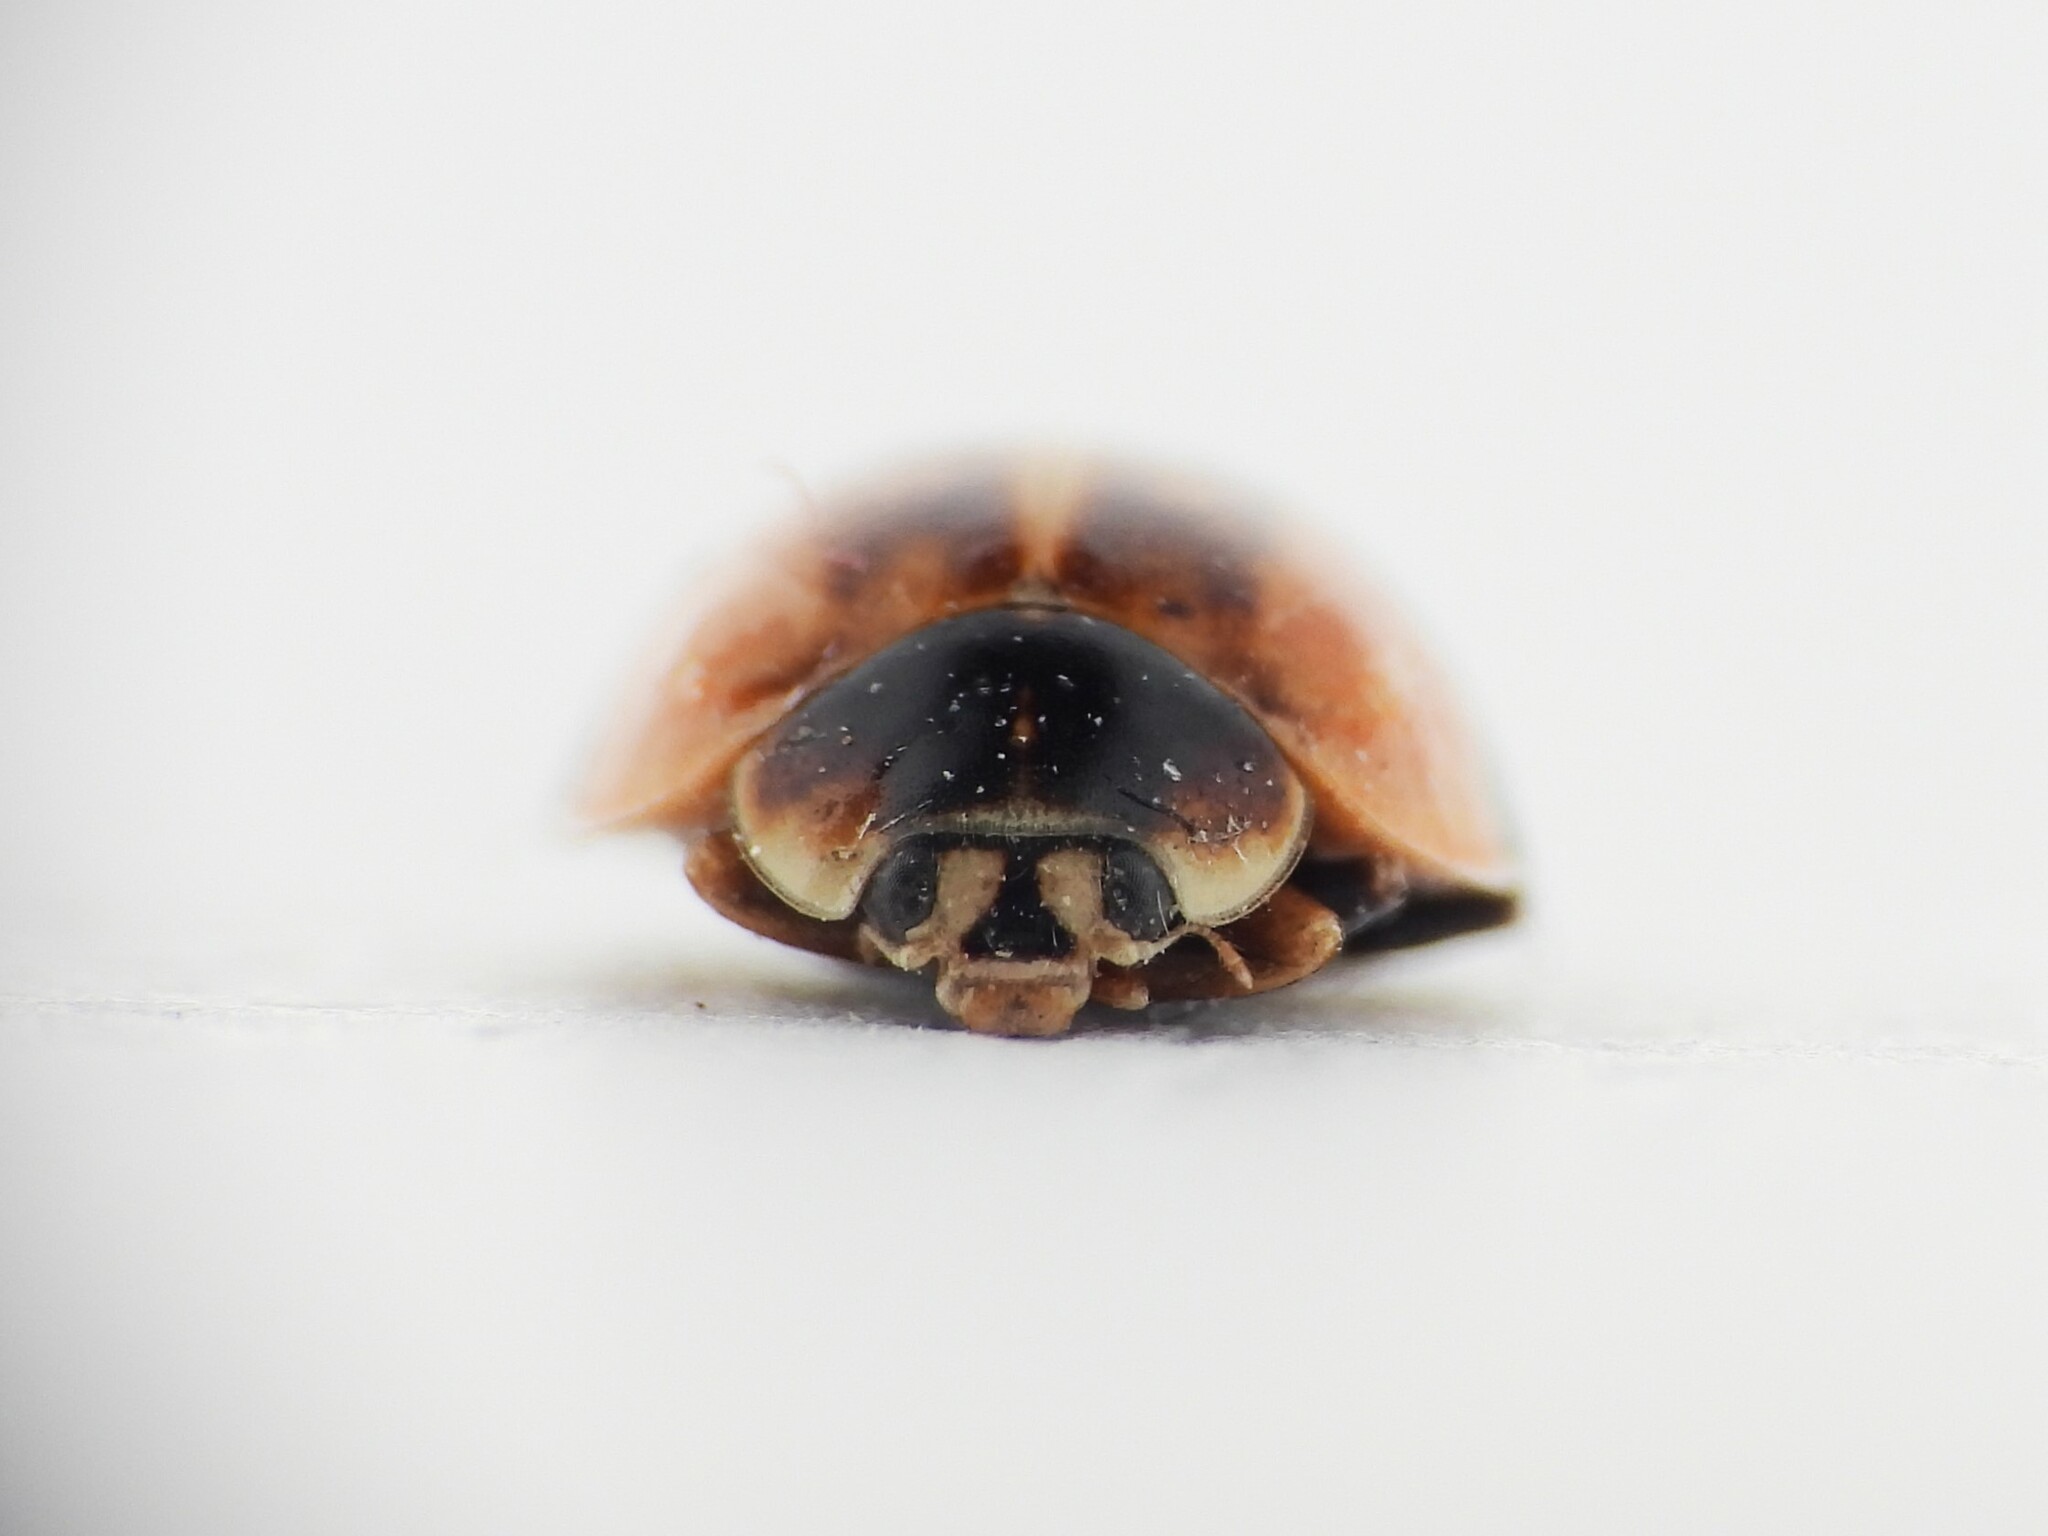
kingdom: Animalia
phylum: Arthropoda
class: Insecta
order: Coleoptera
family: Coccinellidae
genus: Adalia
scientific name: Adalia bipunctata
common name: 2-spot ladybird
